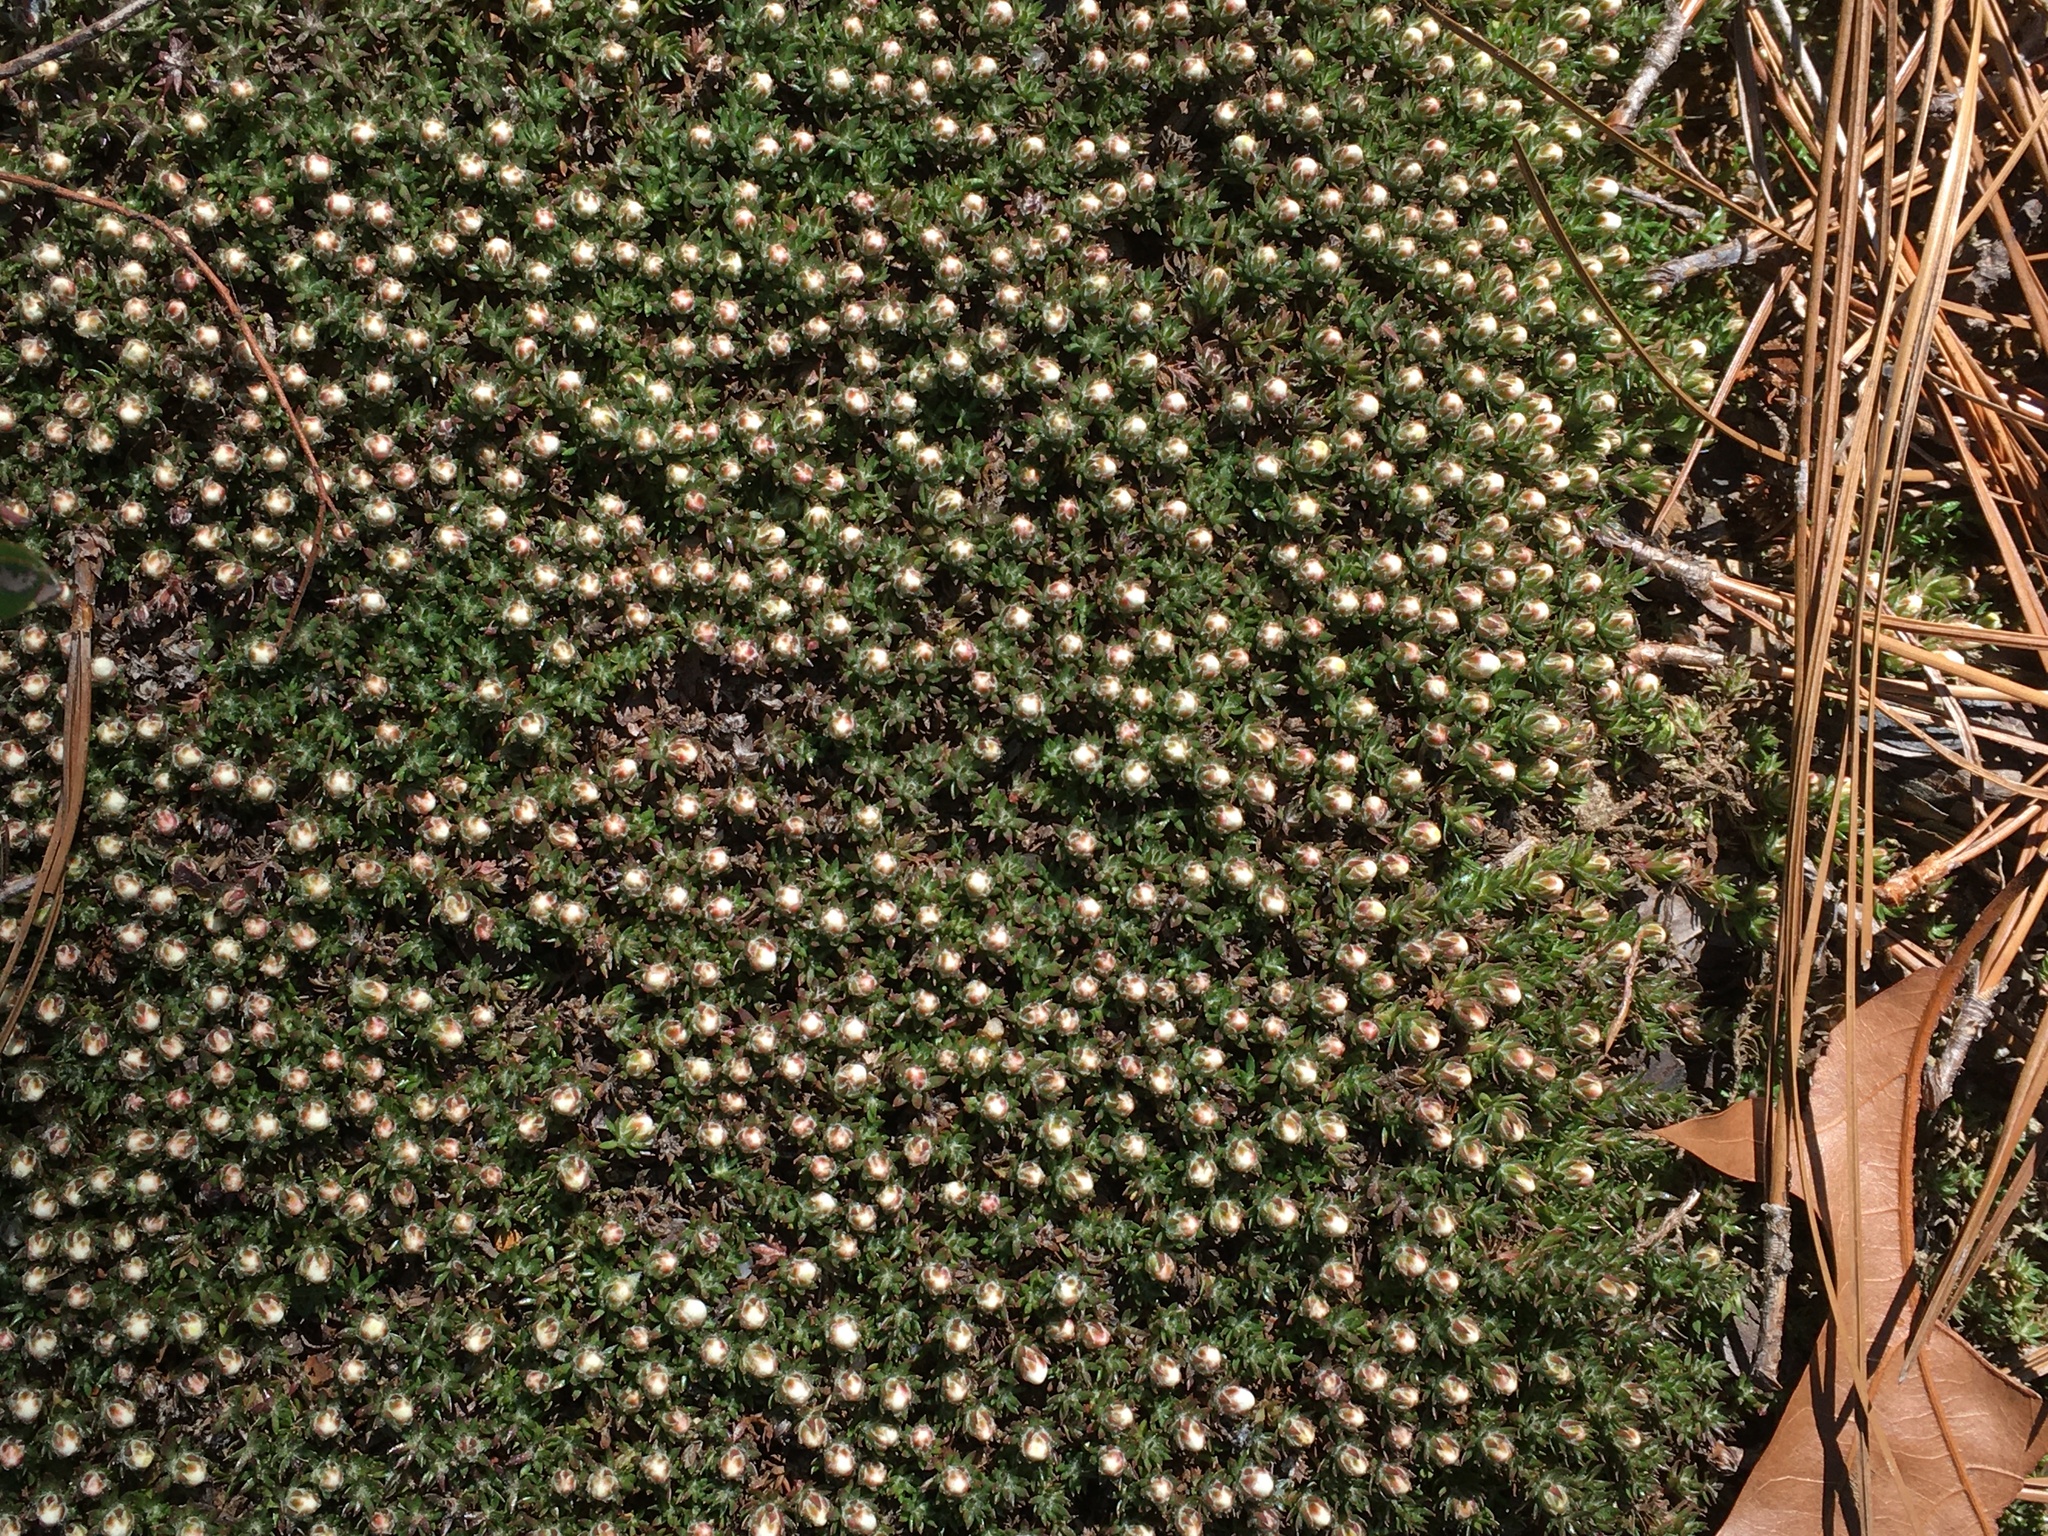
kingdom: Plantae
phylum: Tracheophyta
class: Magnoliopsida
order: Ericales
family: Diapensiaceae
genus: Pyxidanthera
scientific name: Pyxidanthera brevifolia
